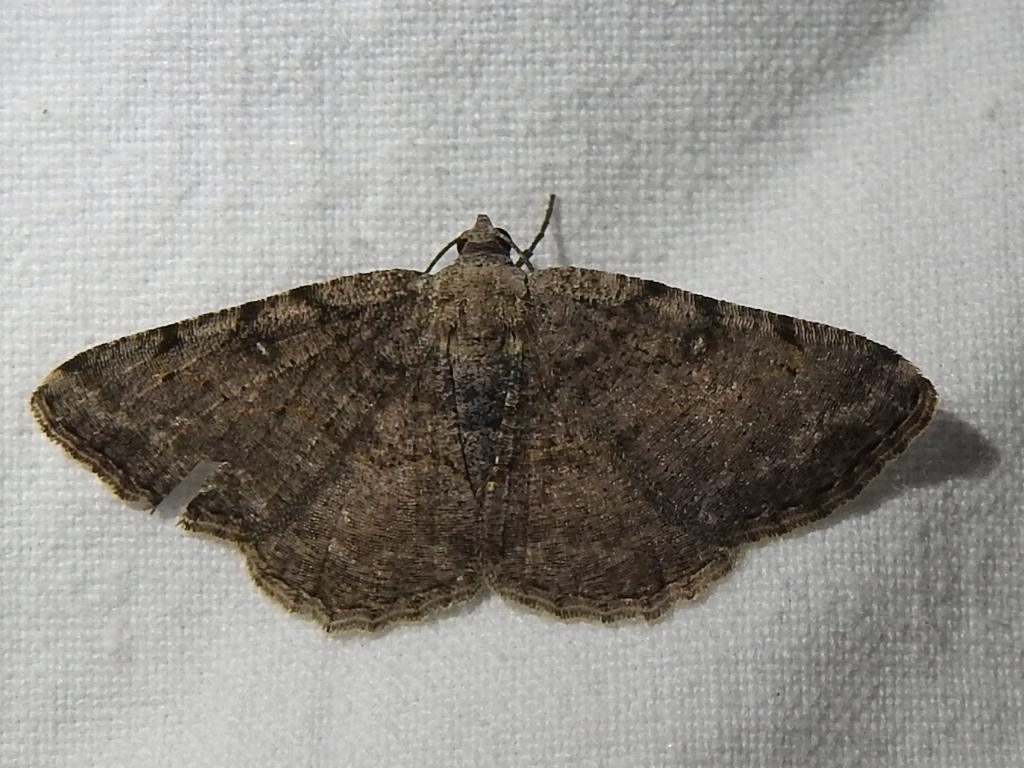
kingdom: Animalia
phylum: Arthropoda
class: Insecta
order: Lepidoptera
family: Geometridae
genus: Digrammia
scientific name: Digrammia gnophosaria
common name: Hollow-spotted angle
